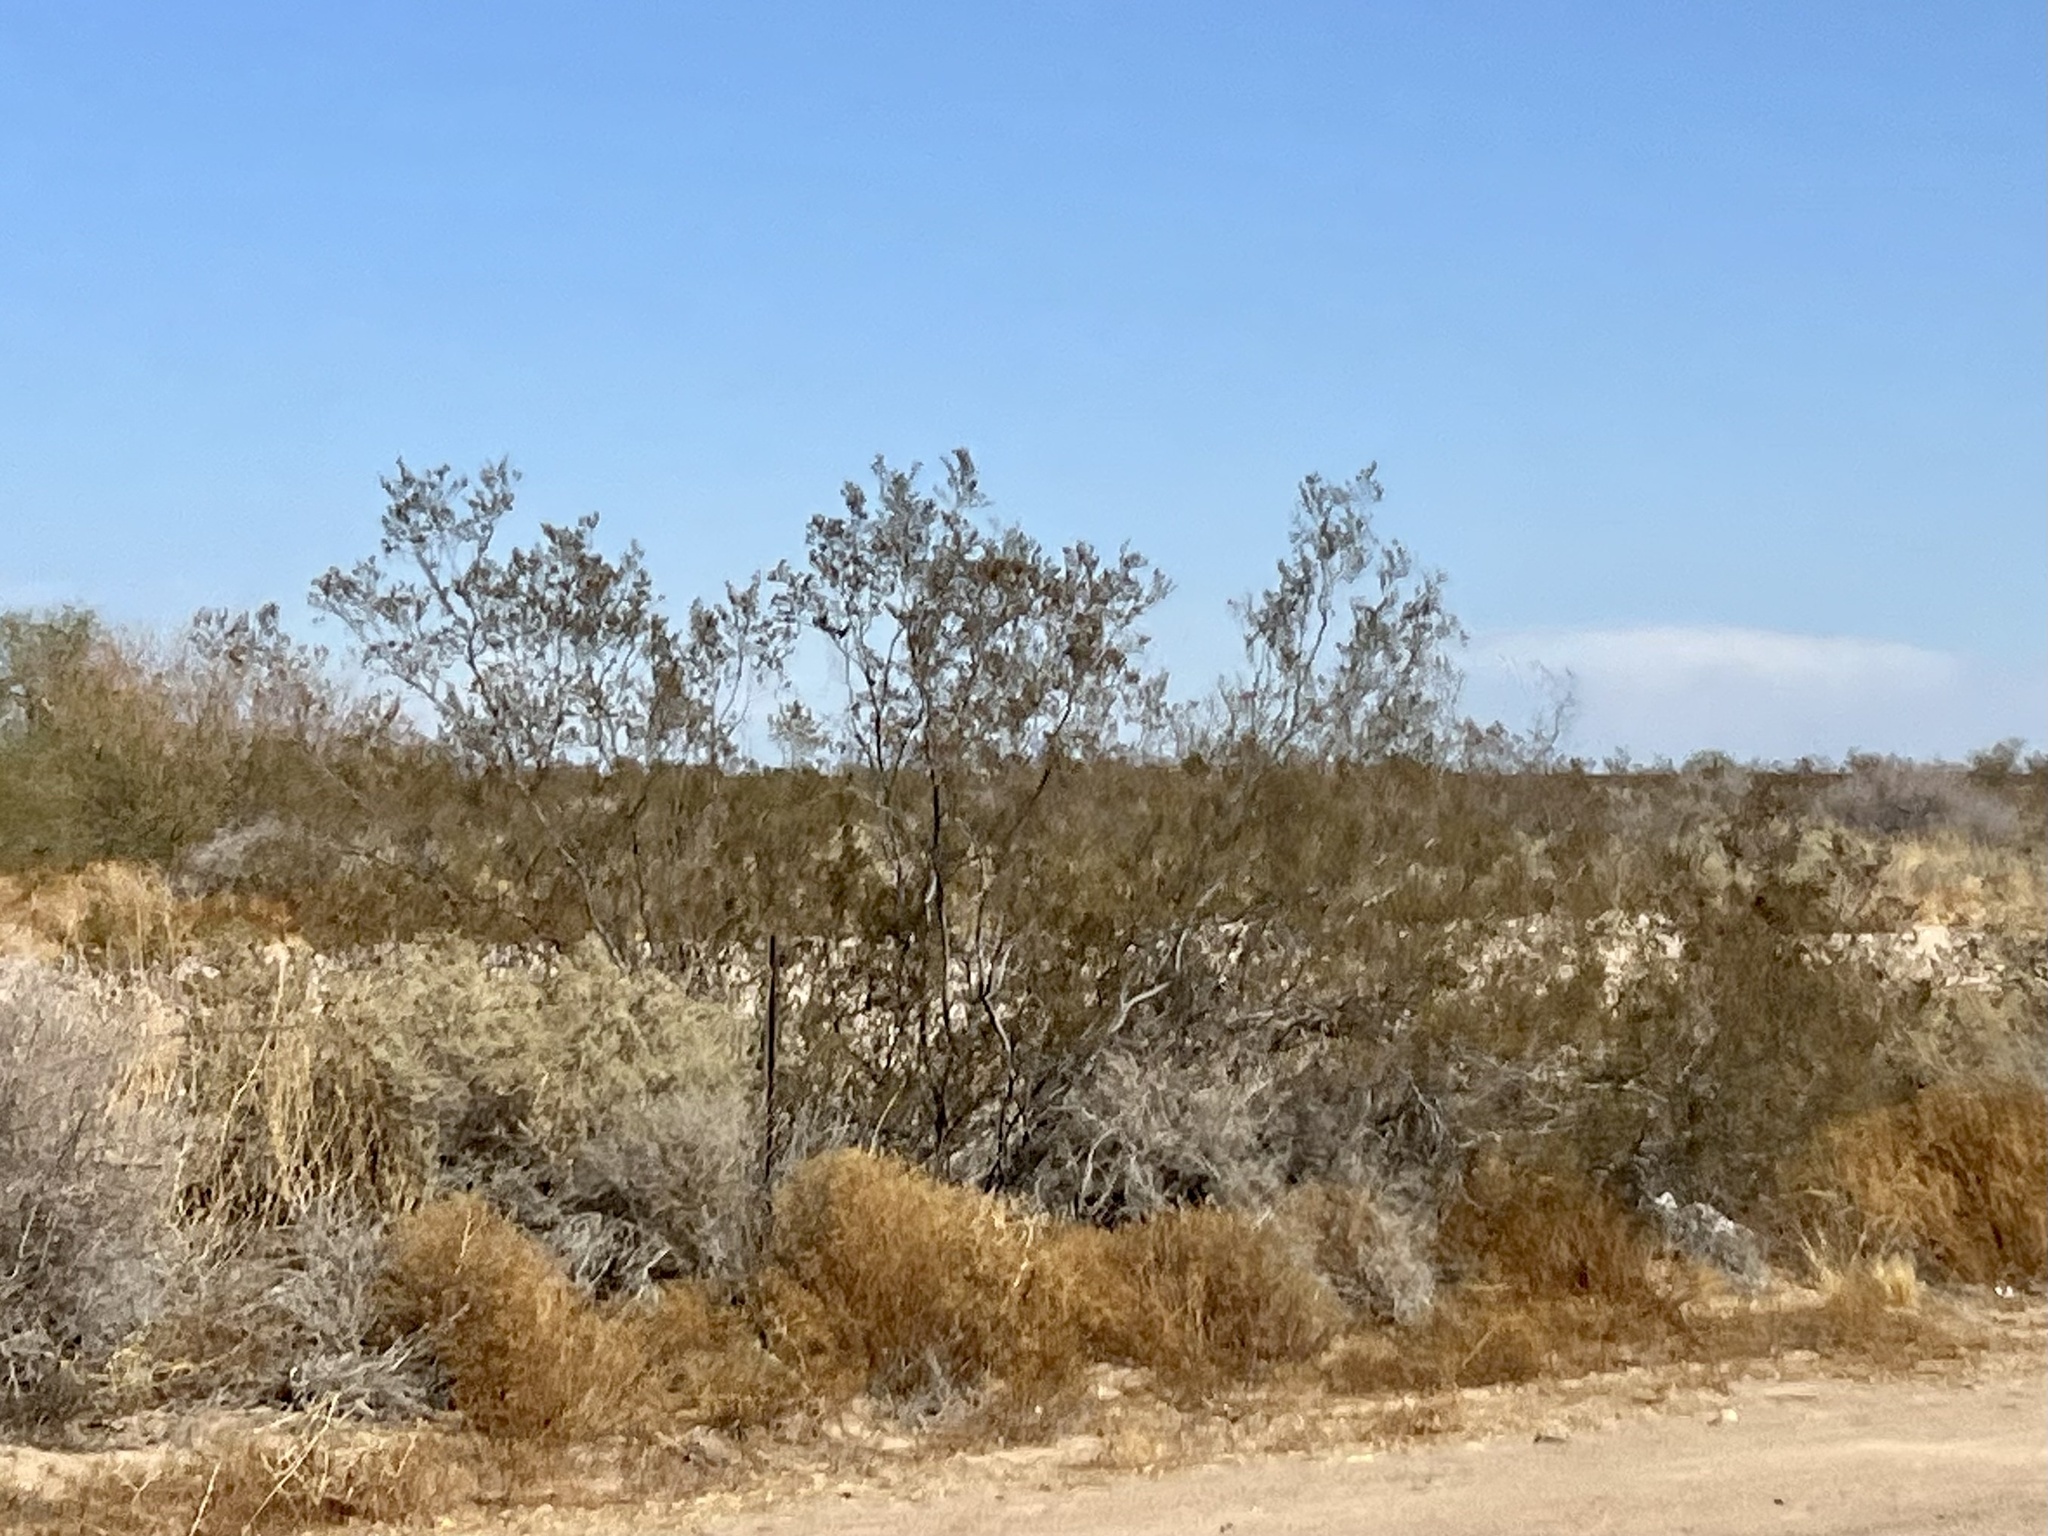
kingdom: Plantae
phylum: Tracheophyta
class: Magnoliopsida
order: Zygophyllales
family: Zygophyllaceae
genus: Larrea
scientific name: Larrea tridentata
